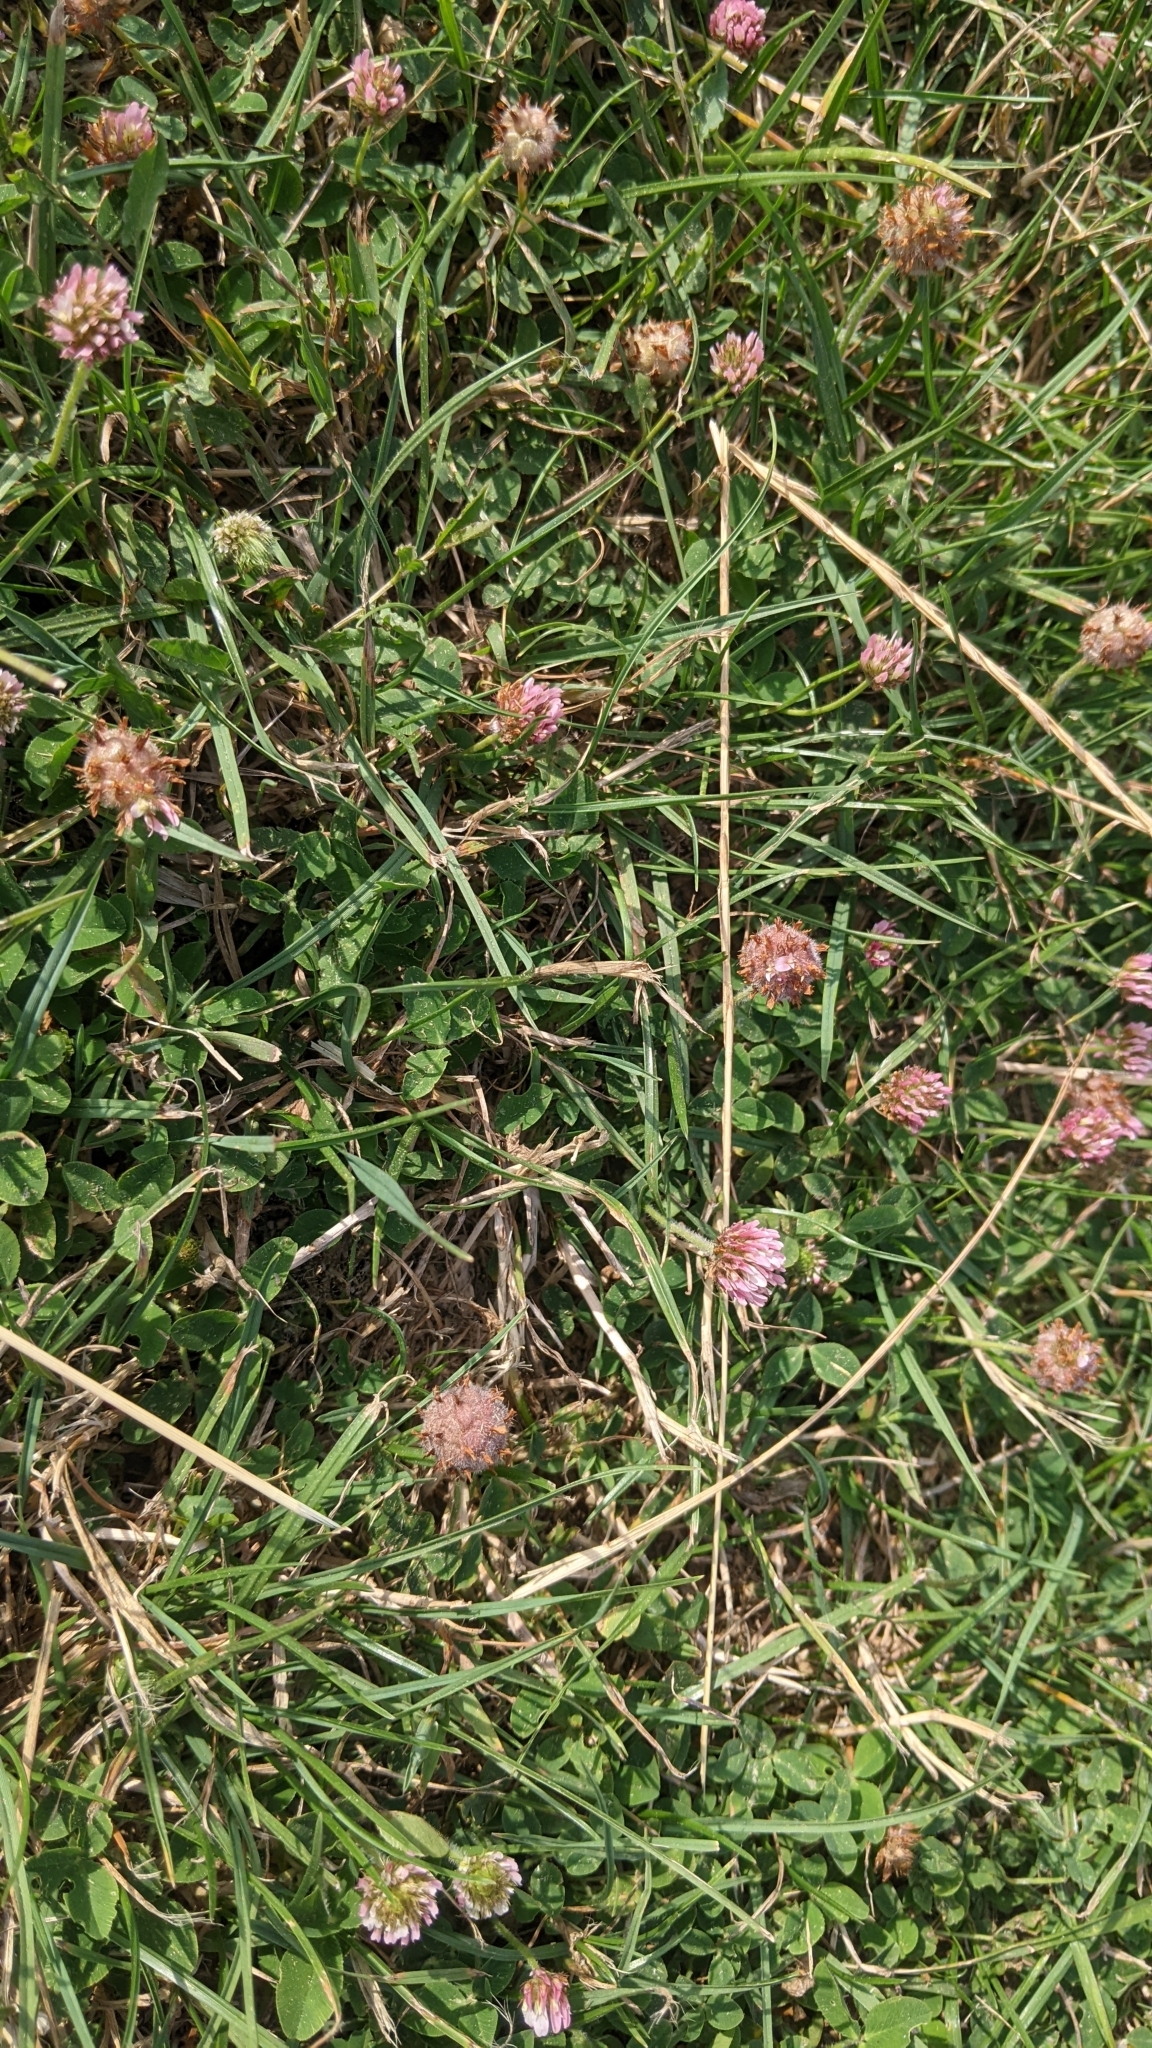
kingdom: Plantae
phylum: Tracheophyta
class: Magnoliopsida
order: Fabales
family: Fabaceae
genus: Trifolium
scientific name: Trifolium fragiferum
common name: Strawberry clover
